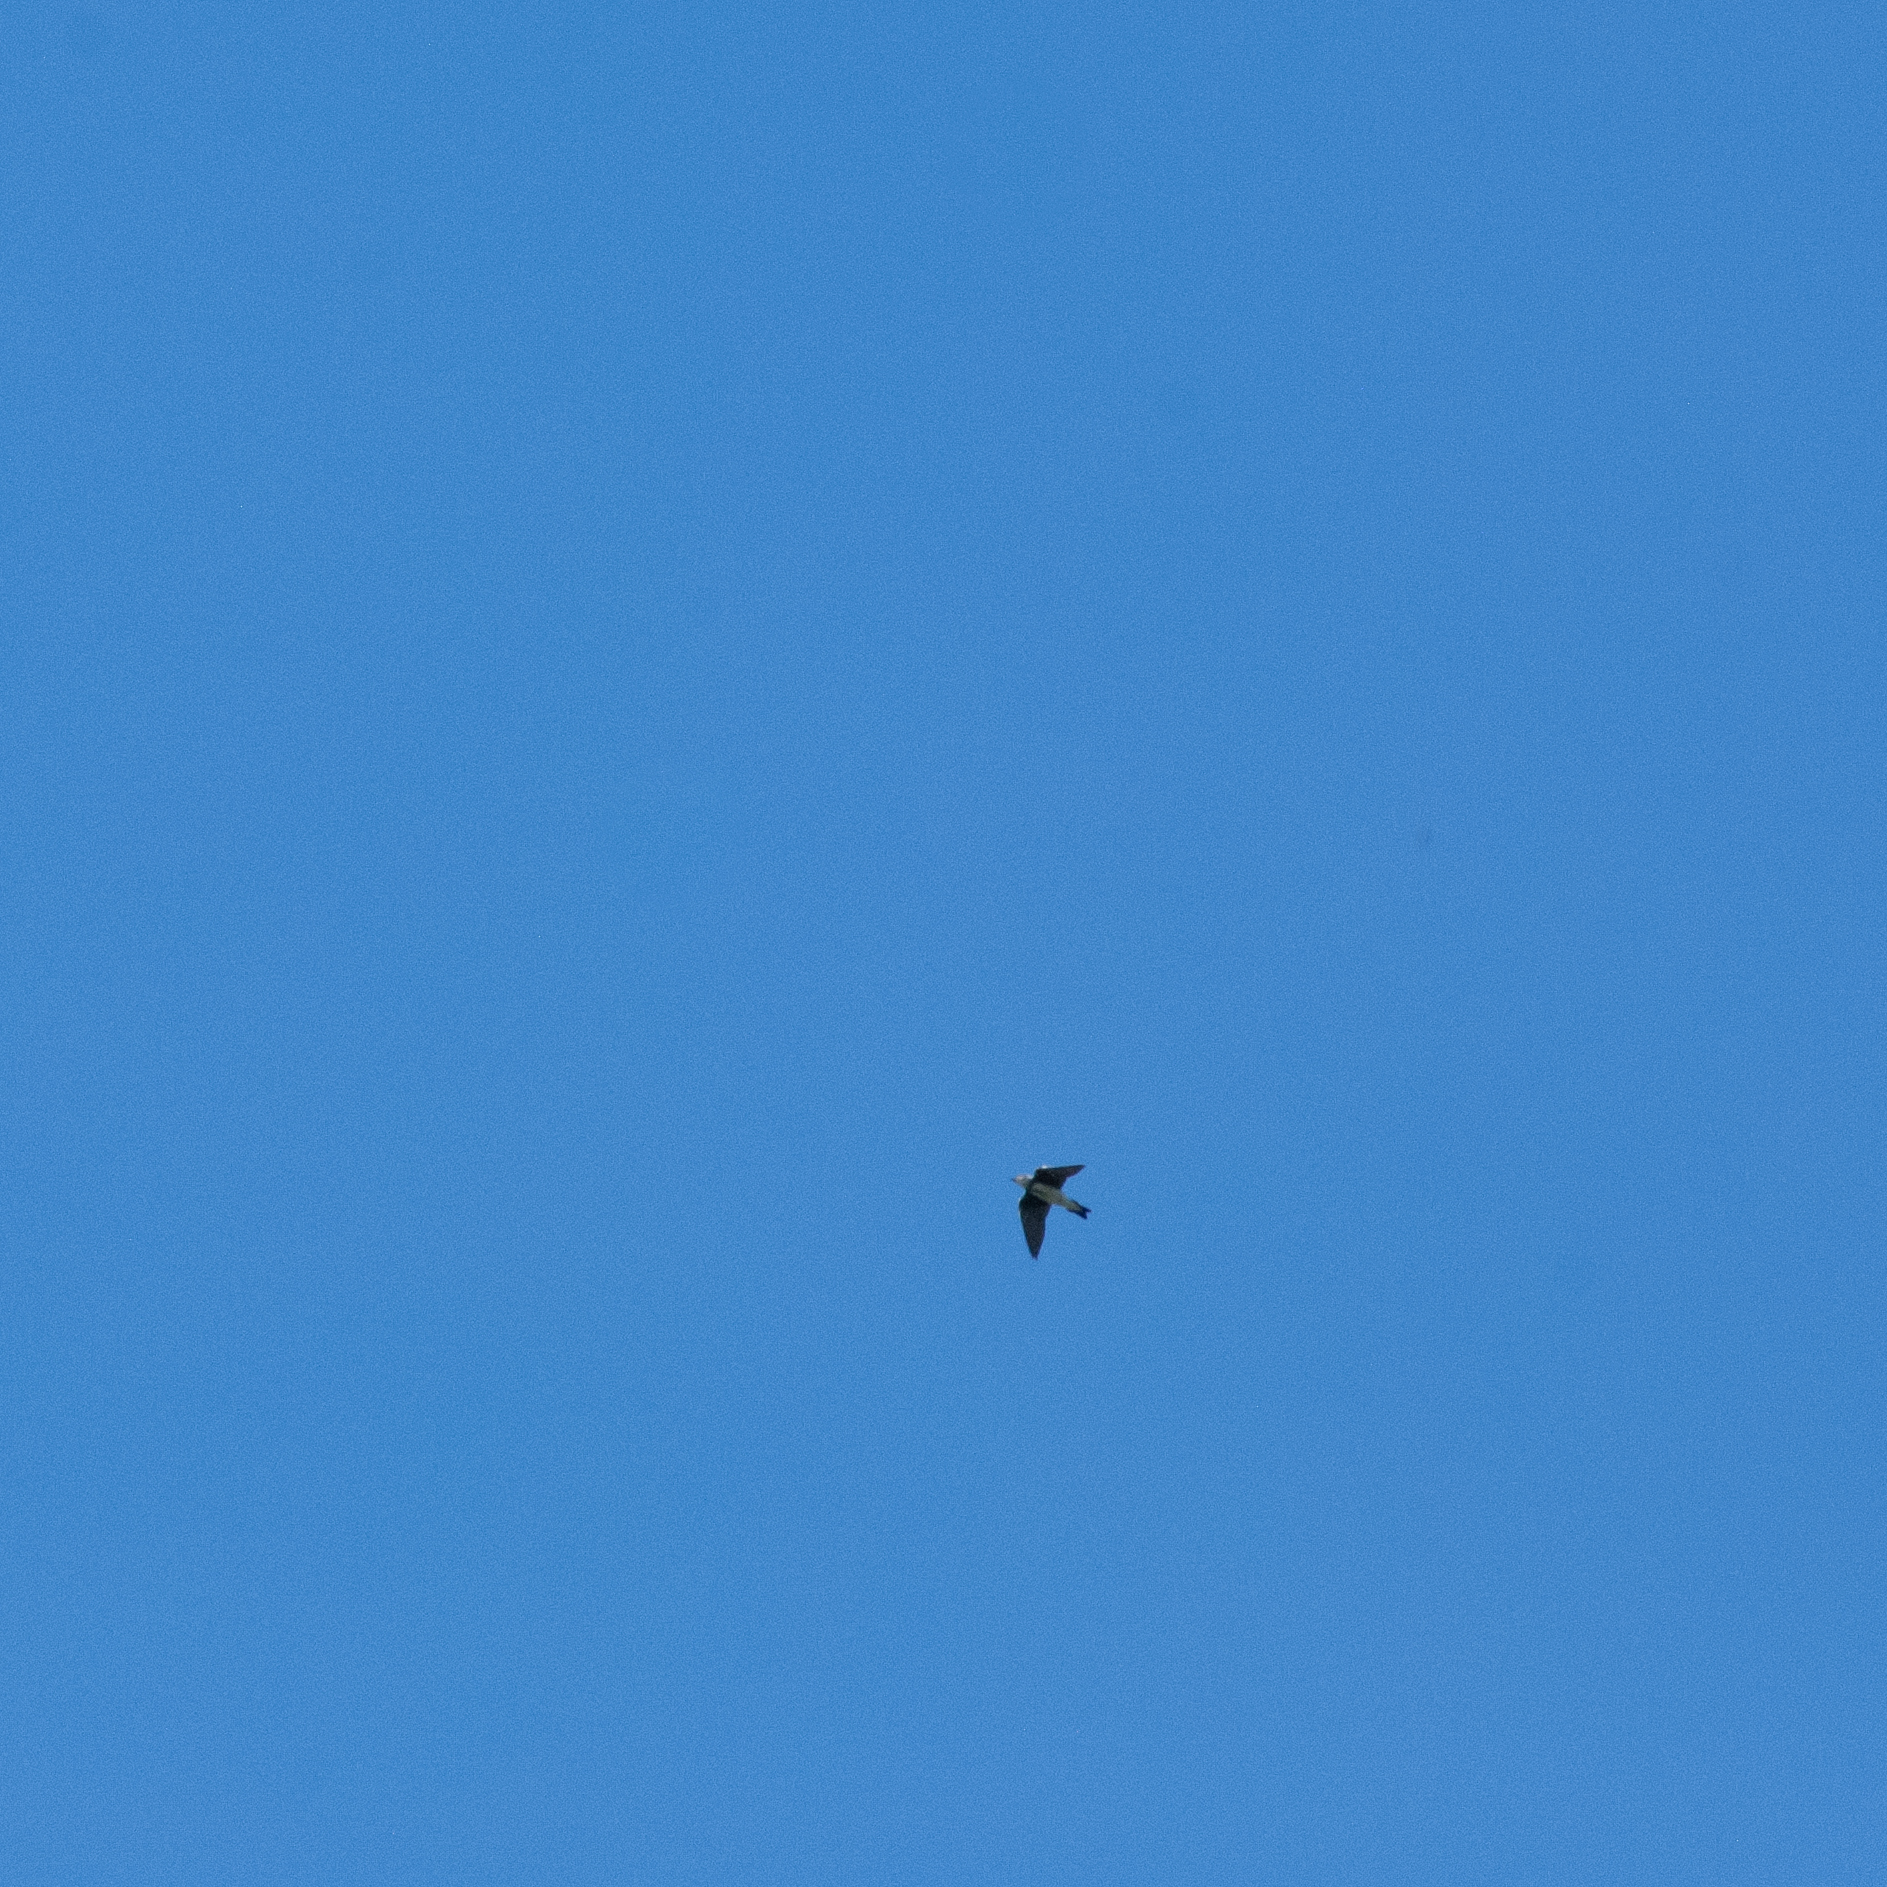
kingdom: Animalia
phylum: Chordata
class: Aves
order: Passeriformes
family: Hirundinidae
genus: Progne
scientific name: Progne tapera
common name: Brown-chested martin
